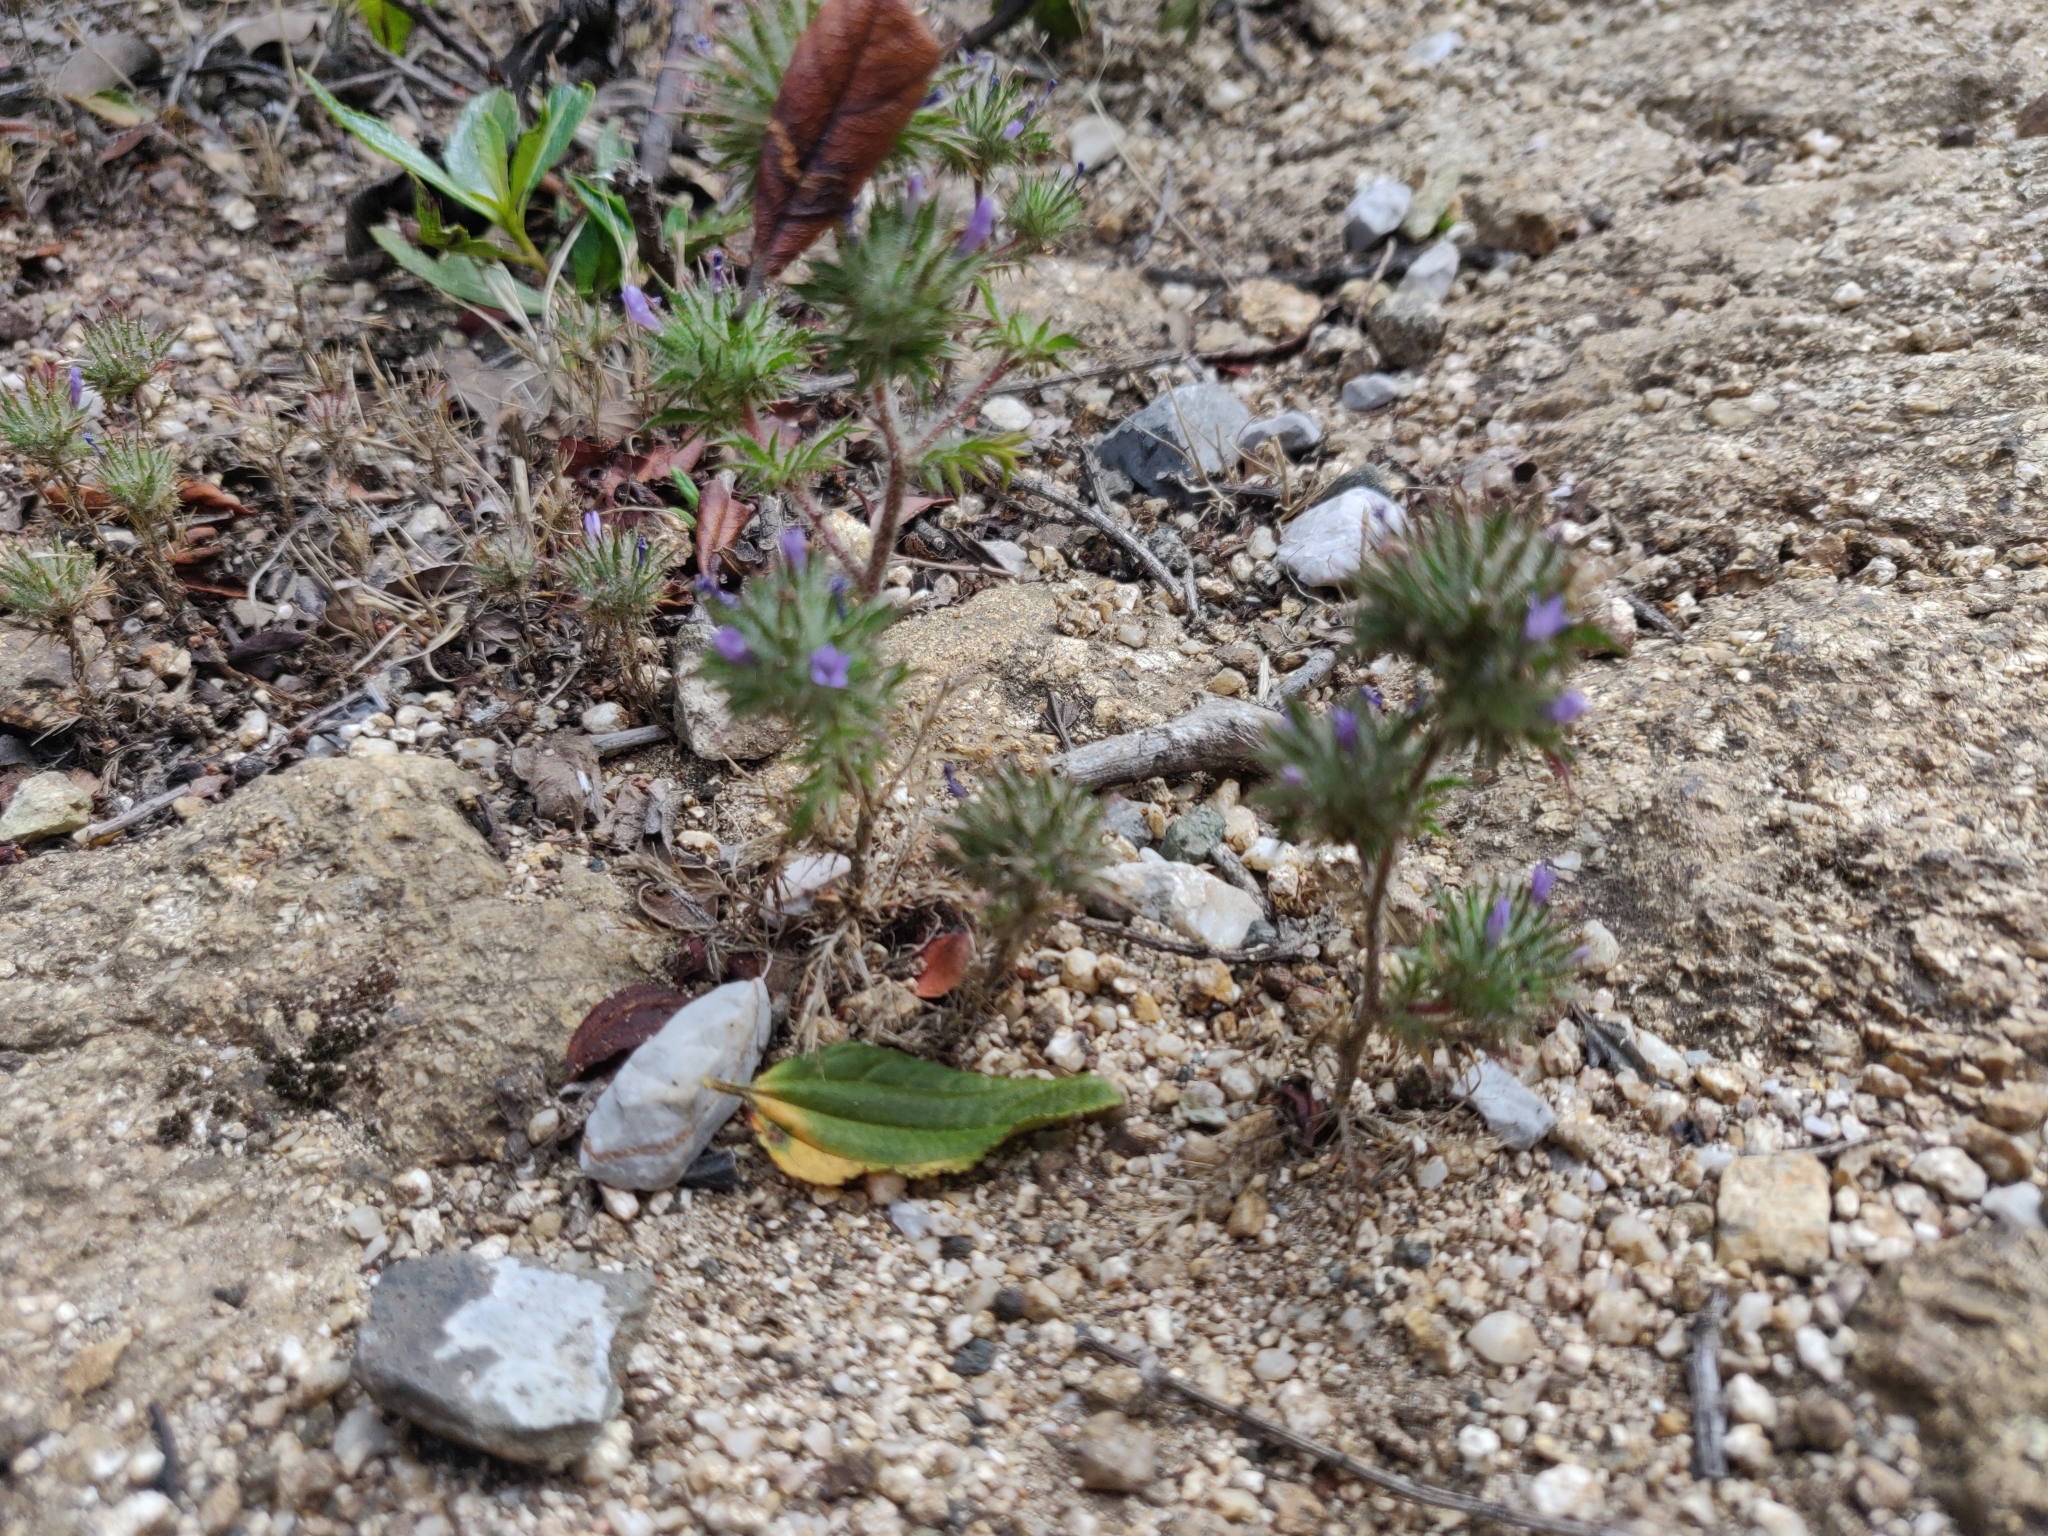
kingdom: Plantae
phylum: Tracheophyta
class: Magnoliopsida
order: Ericales
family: Polemoniaceae
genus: Navarretia
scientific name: Navarretia squarrosa
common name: Skunkweed
